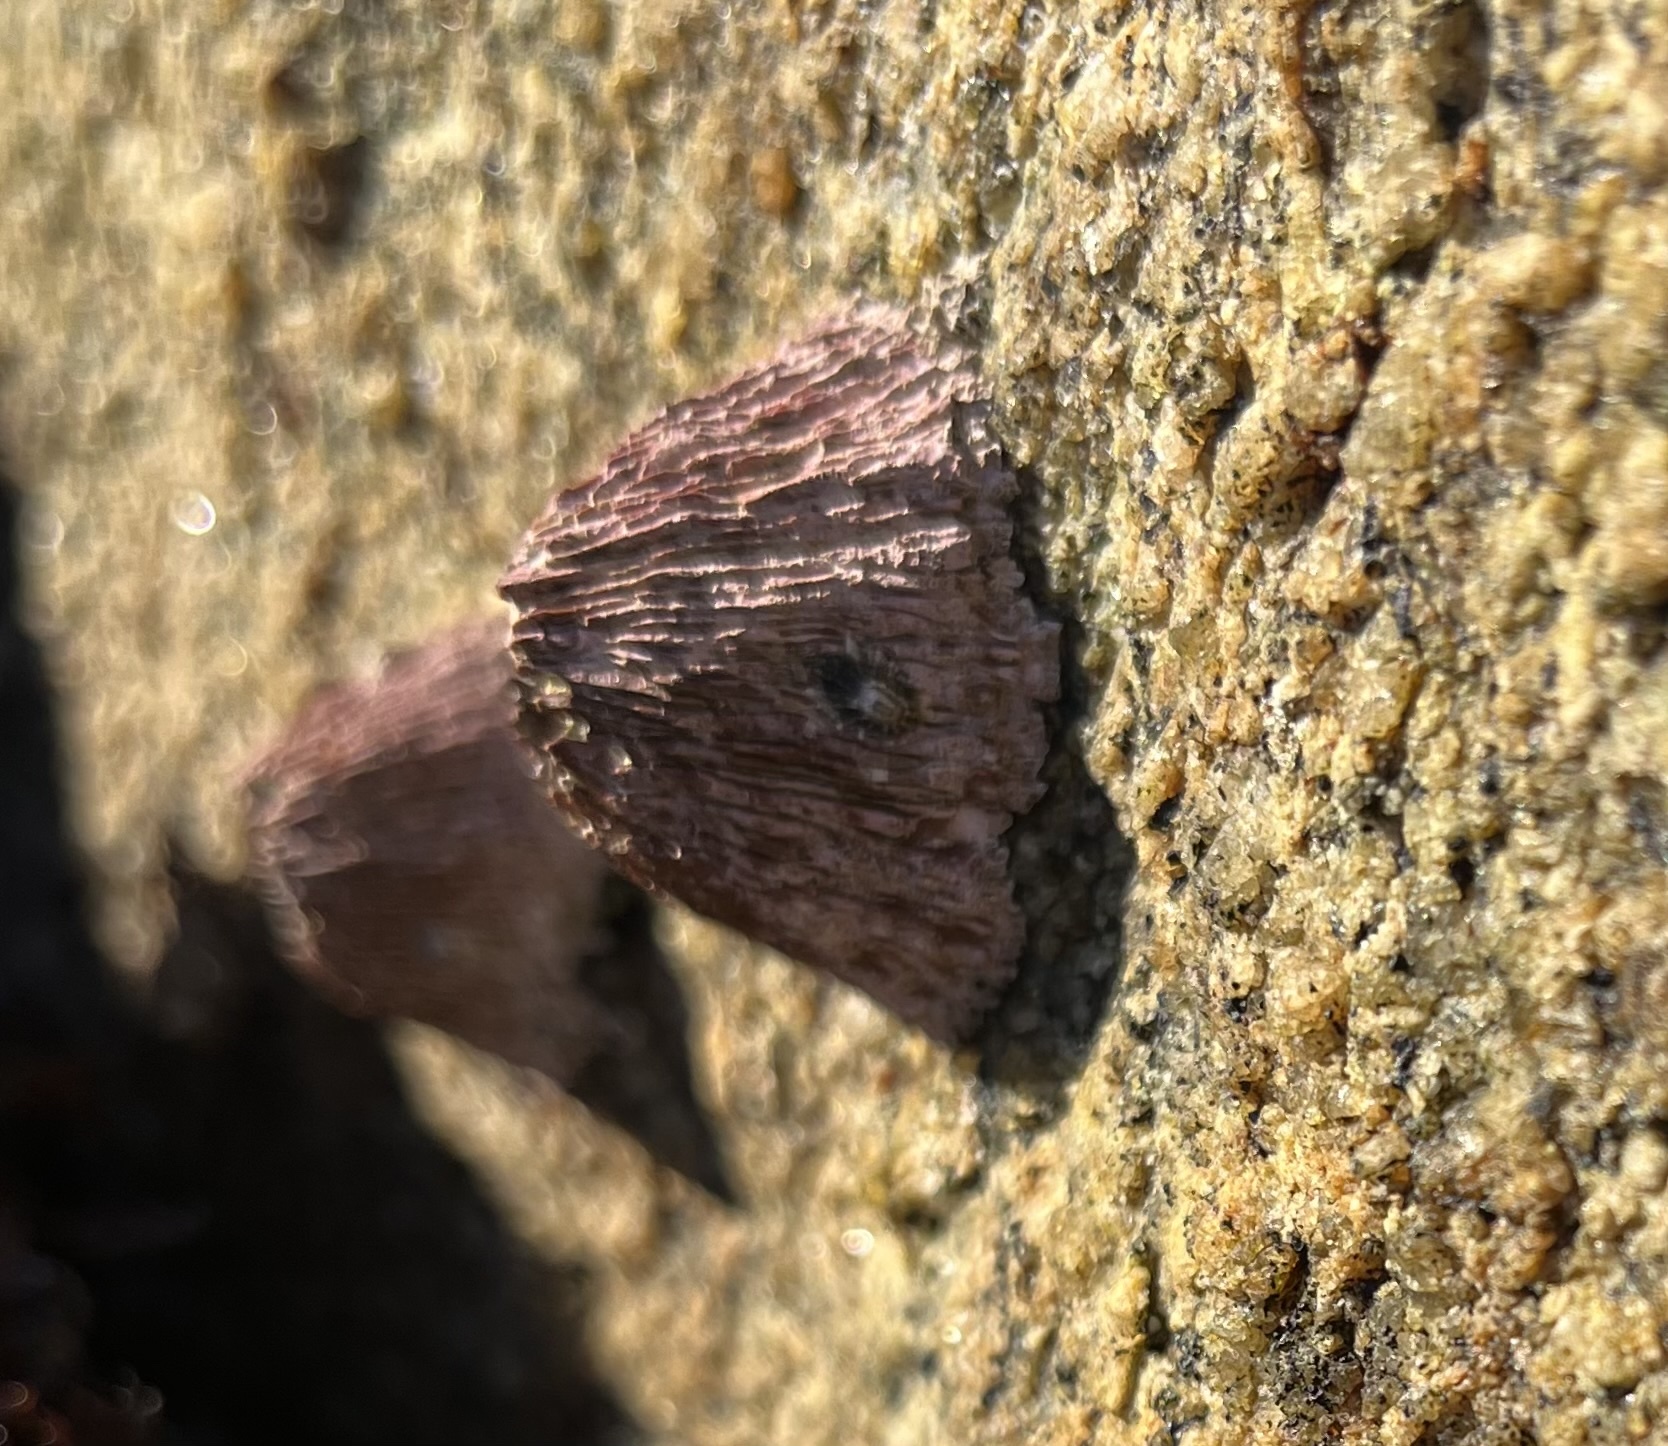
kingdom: Animalia
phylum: Arthropoda
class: Maxillopoda
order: Sessilia
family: Tetraclitidae
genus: Tetraclita
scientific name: Tetraclita rubescens
